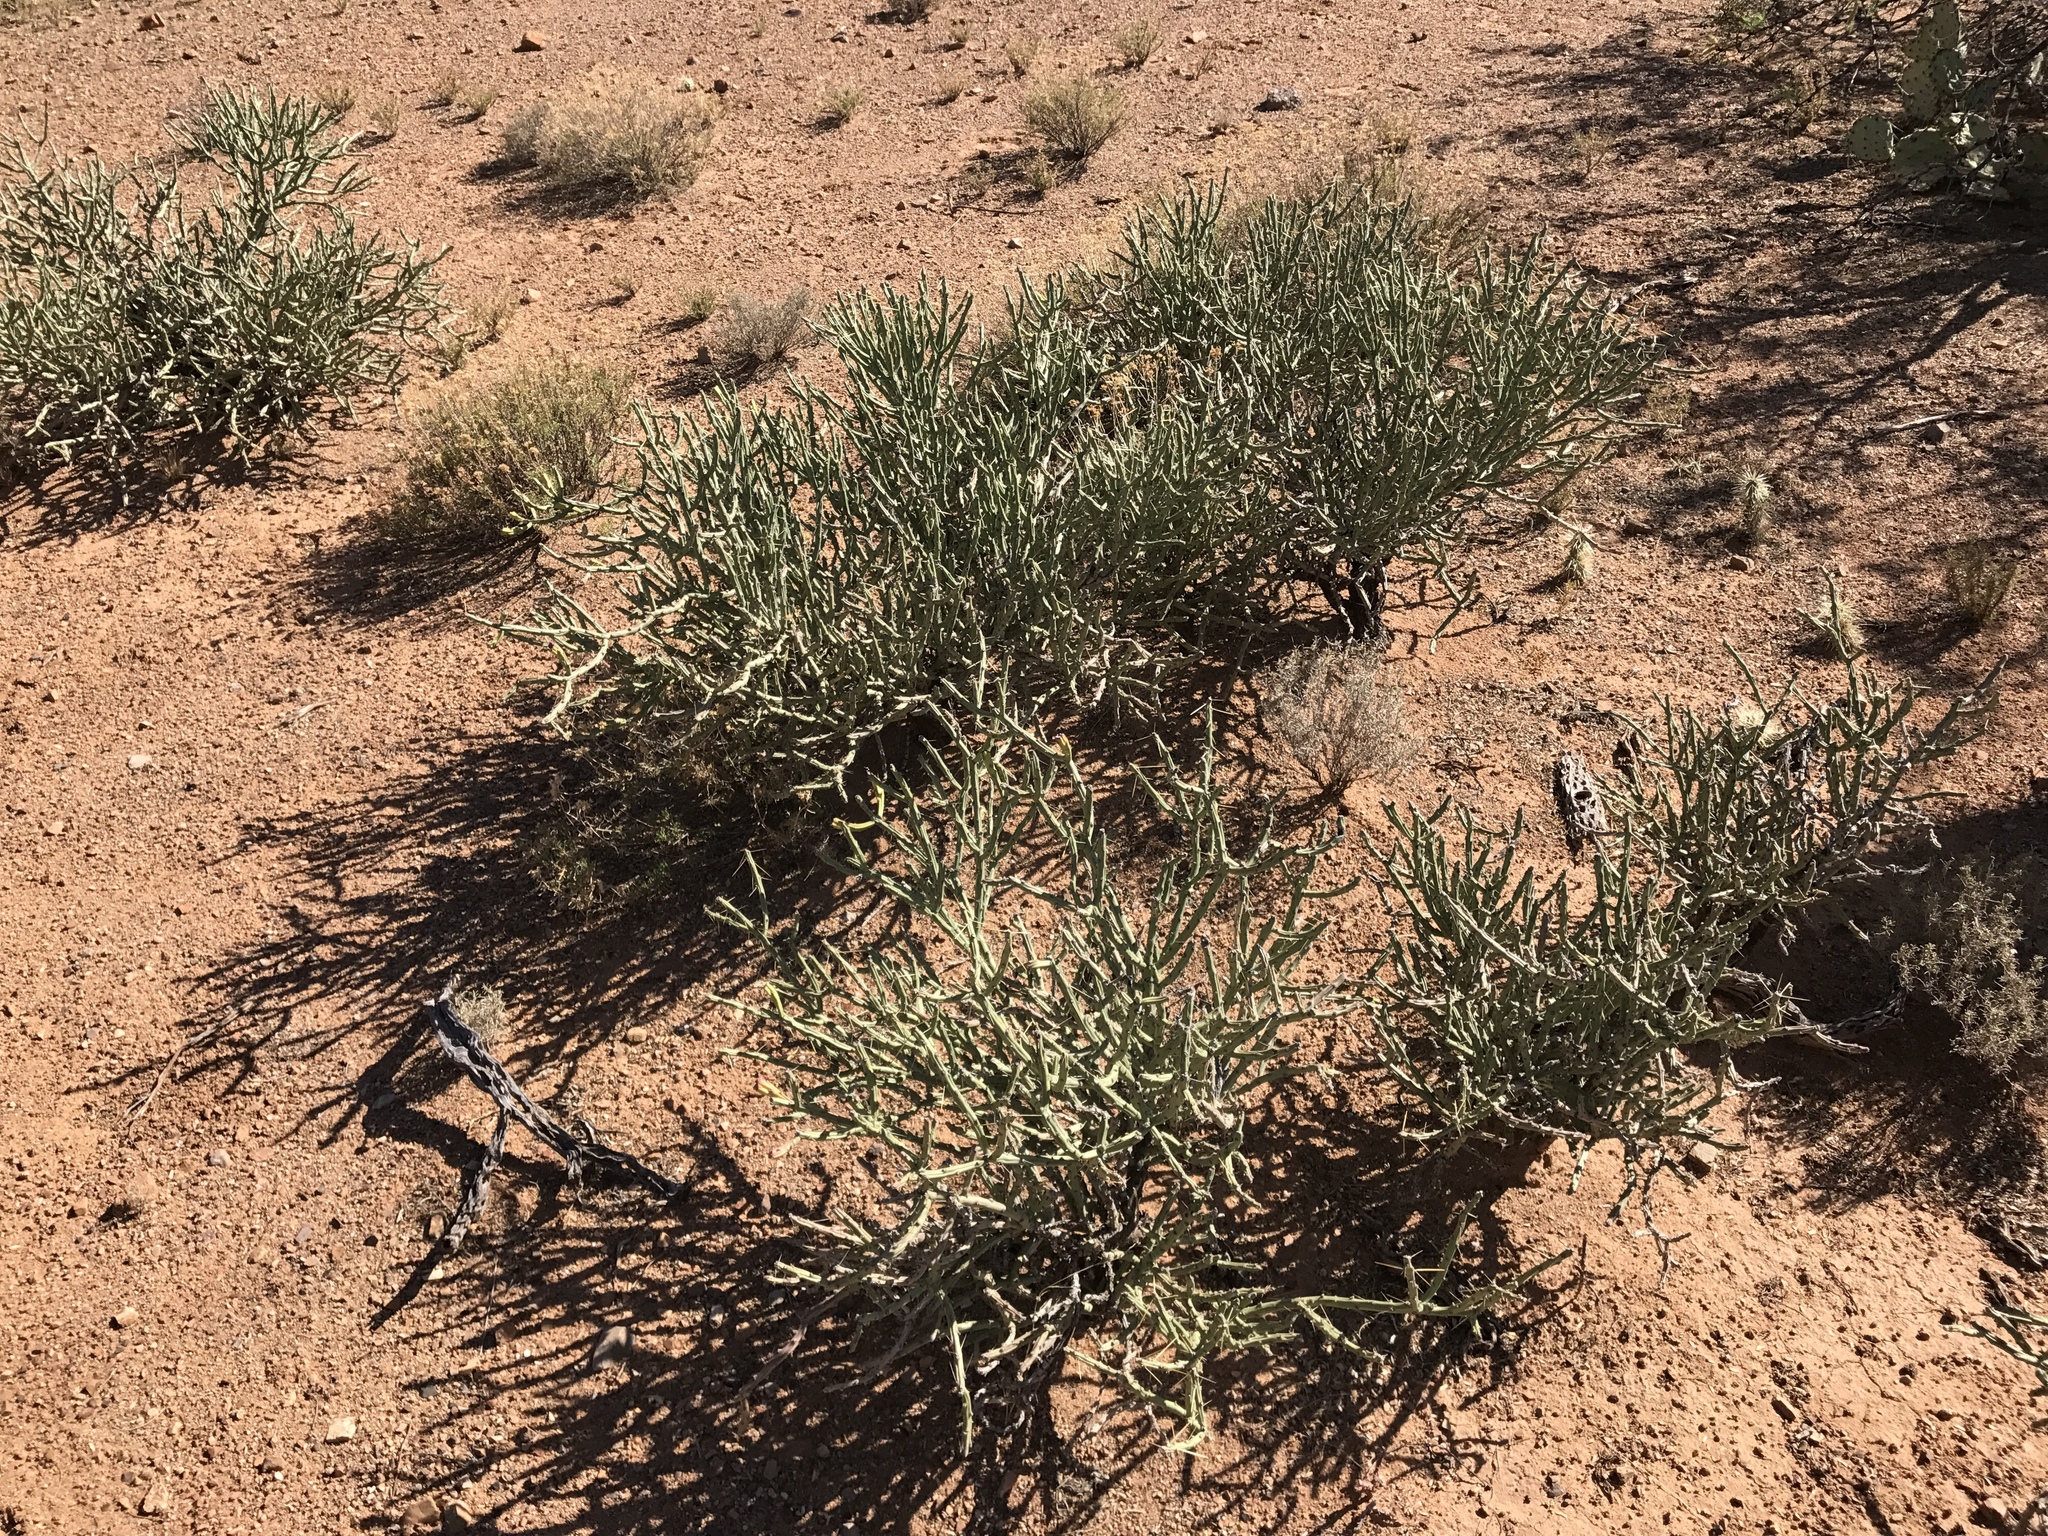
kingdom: Plantae
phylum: Tracheophyta
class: Magnoliopsida
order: Caryophyllales
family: Cactaceae
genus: Cylindropuntia
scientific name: Cylindropuntia arbuscula
